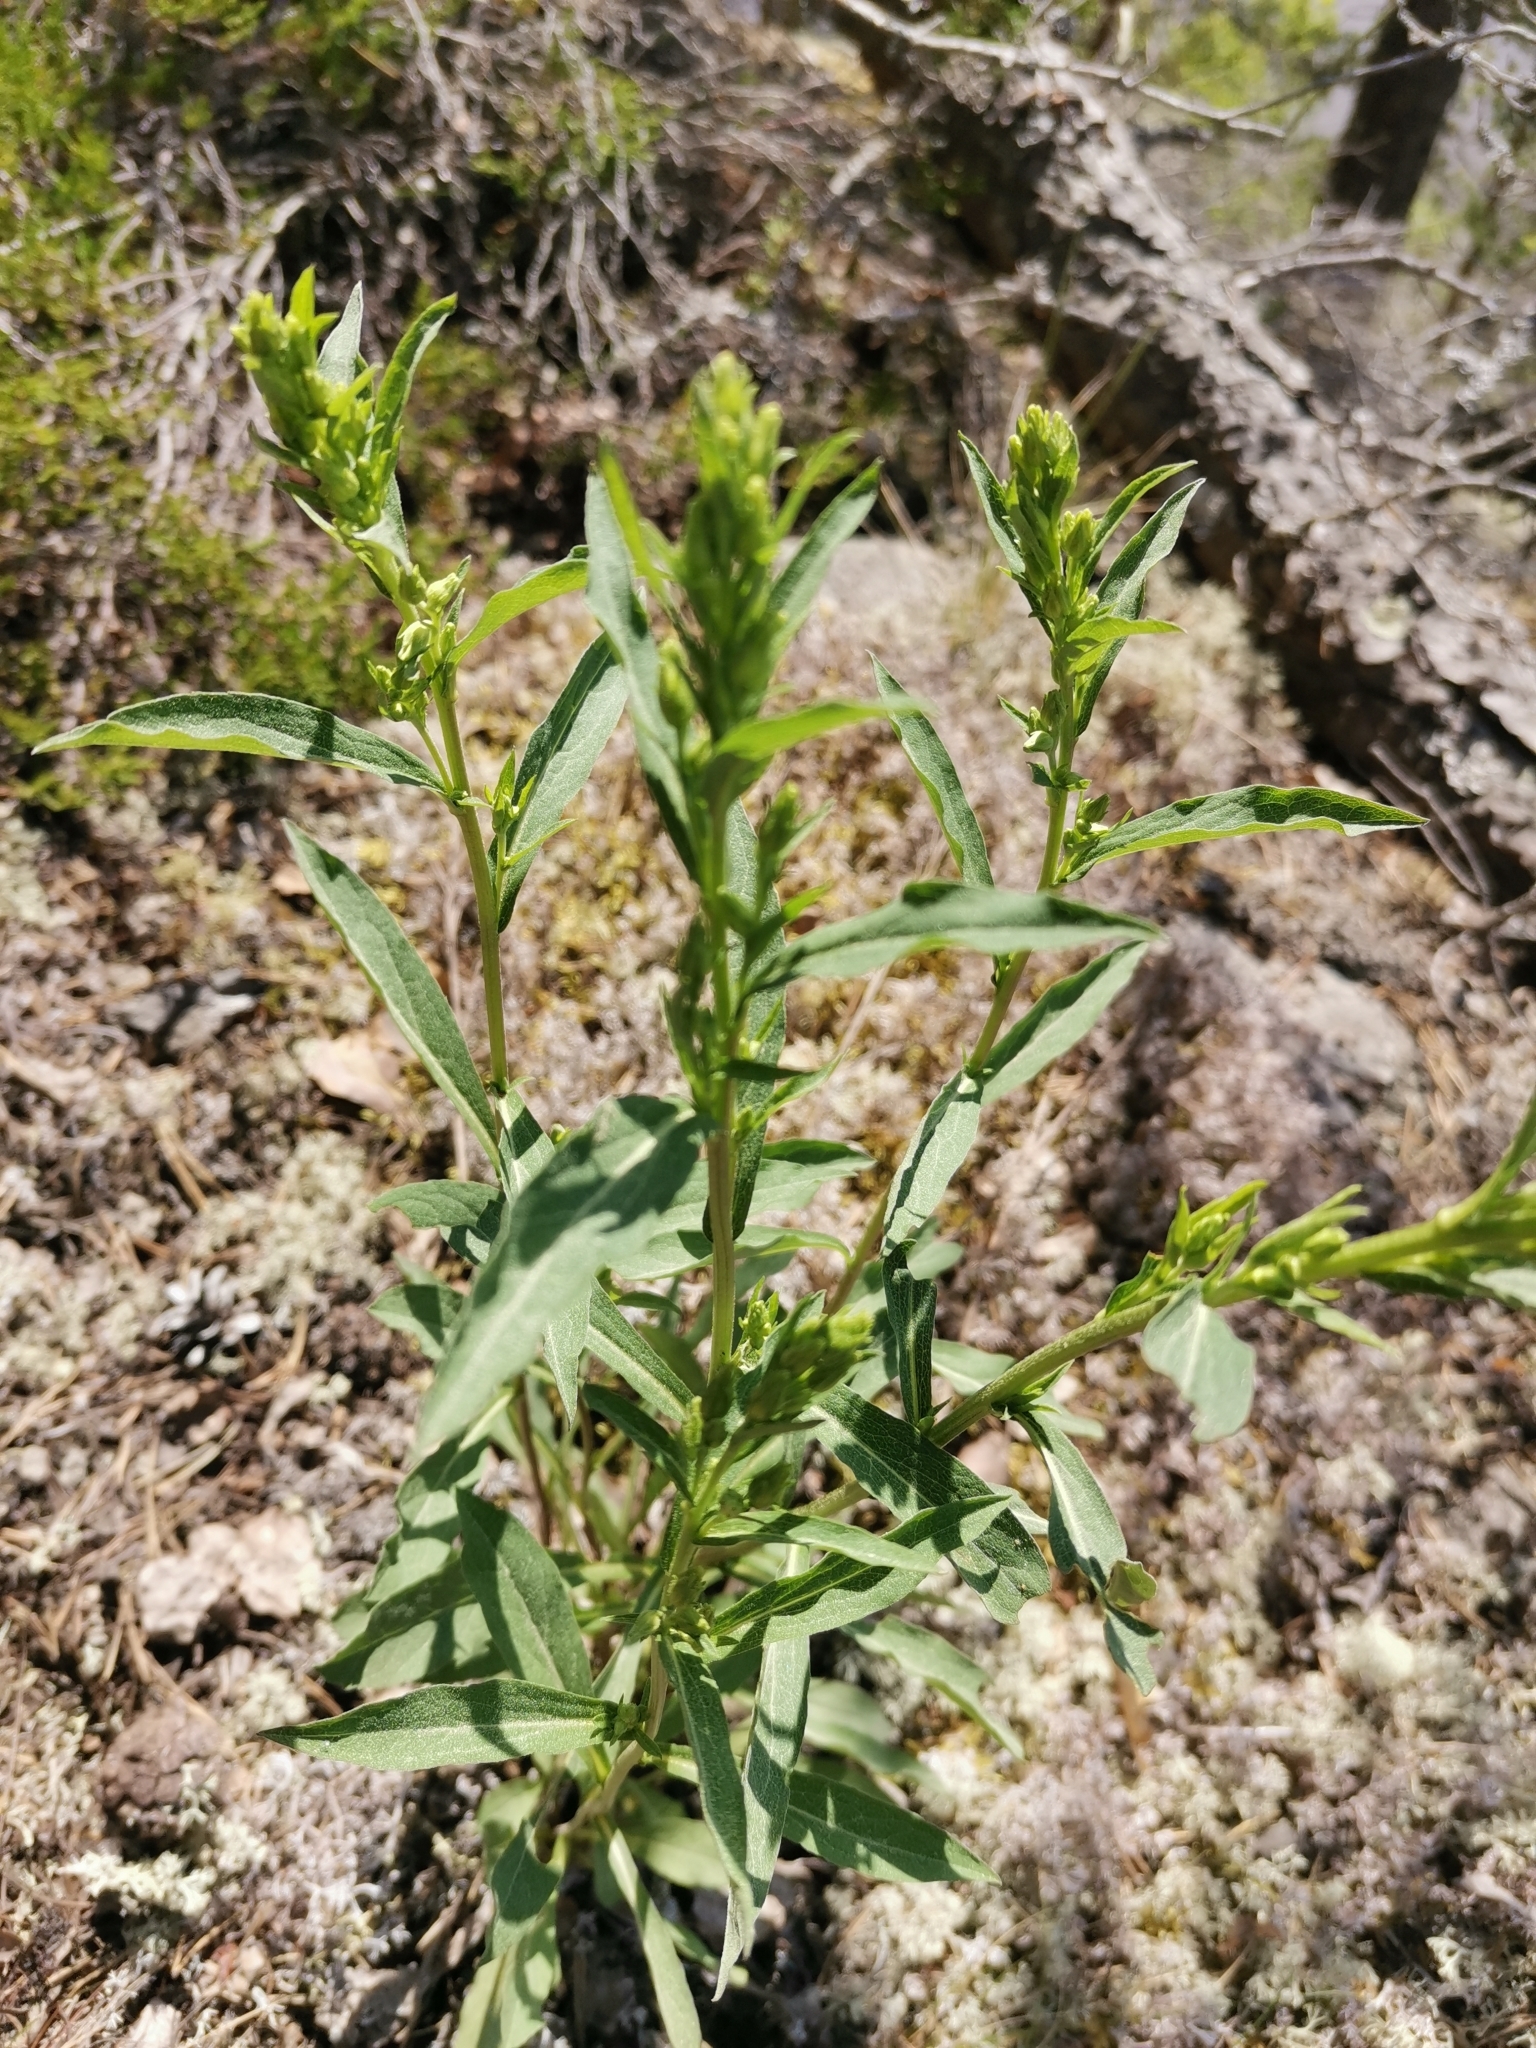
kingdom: Plantae
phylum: Tracheophyta
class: Magnoliopsida
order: Asterales
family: Asteraceae
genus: Solidago
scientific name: Solidago virgaurea
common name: Goldenrod
